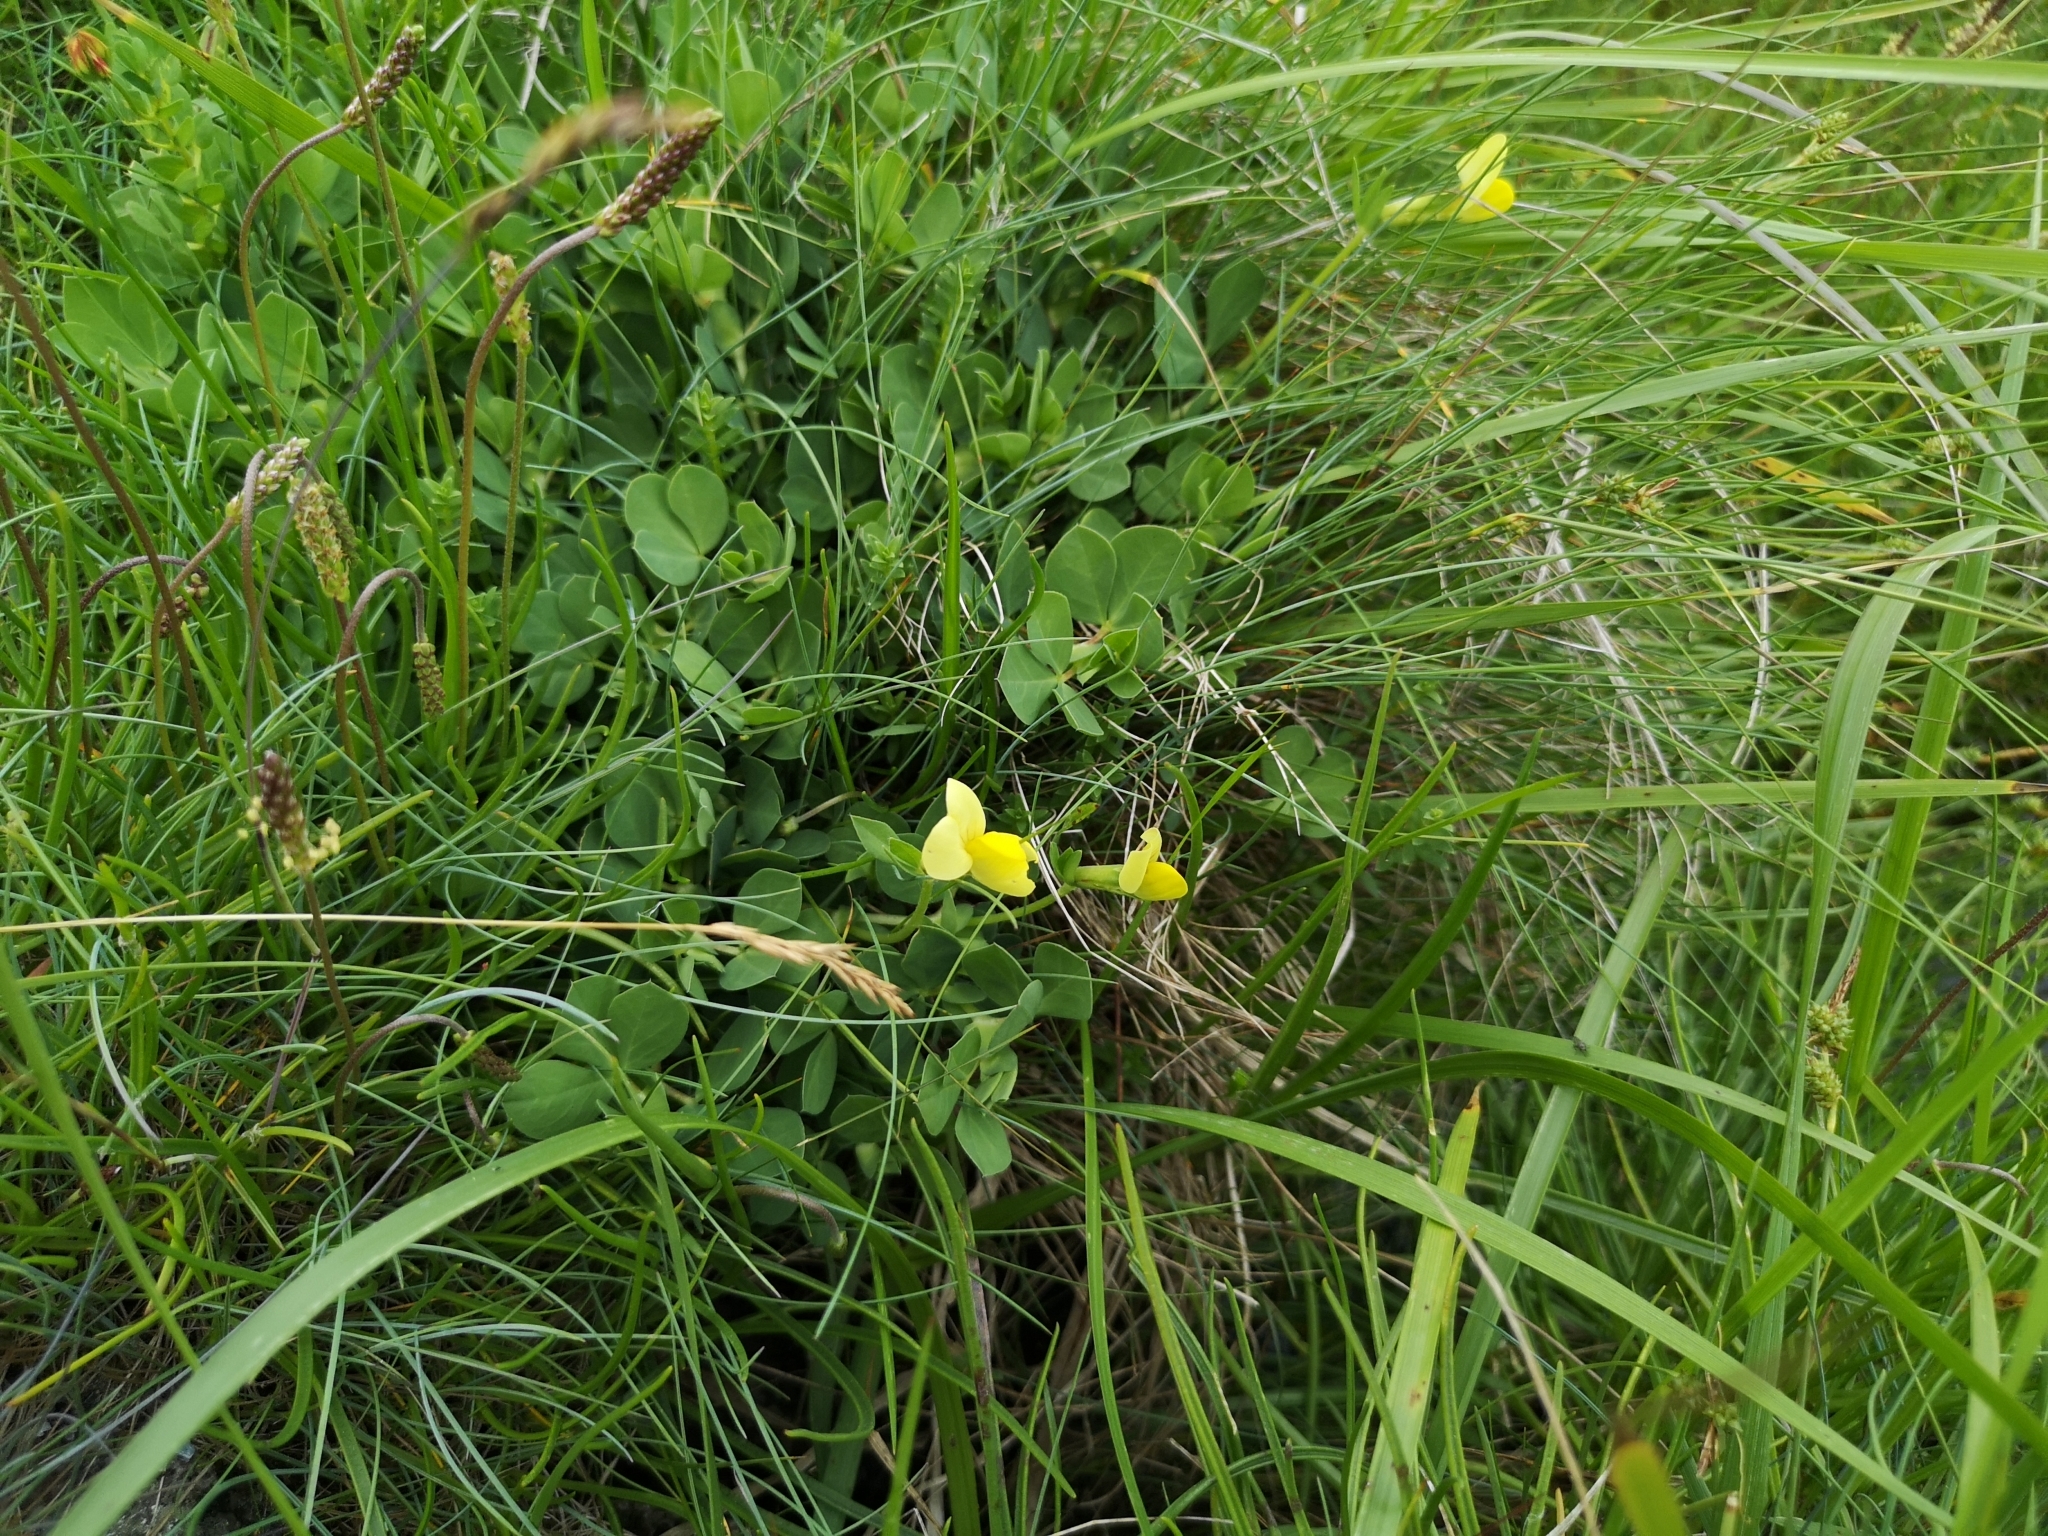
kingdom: Plantae
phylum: Tracheophyta
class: Magnoliopsida
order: Fabales
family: Fabaceae
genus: Lotus
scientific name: Lotus maritimus
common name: Dragon's-teeth
